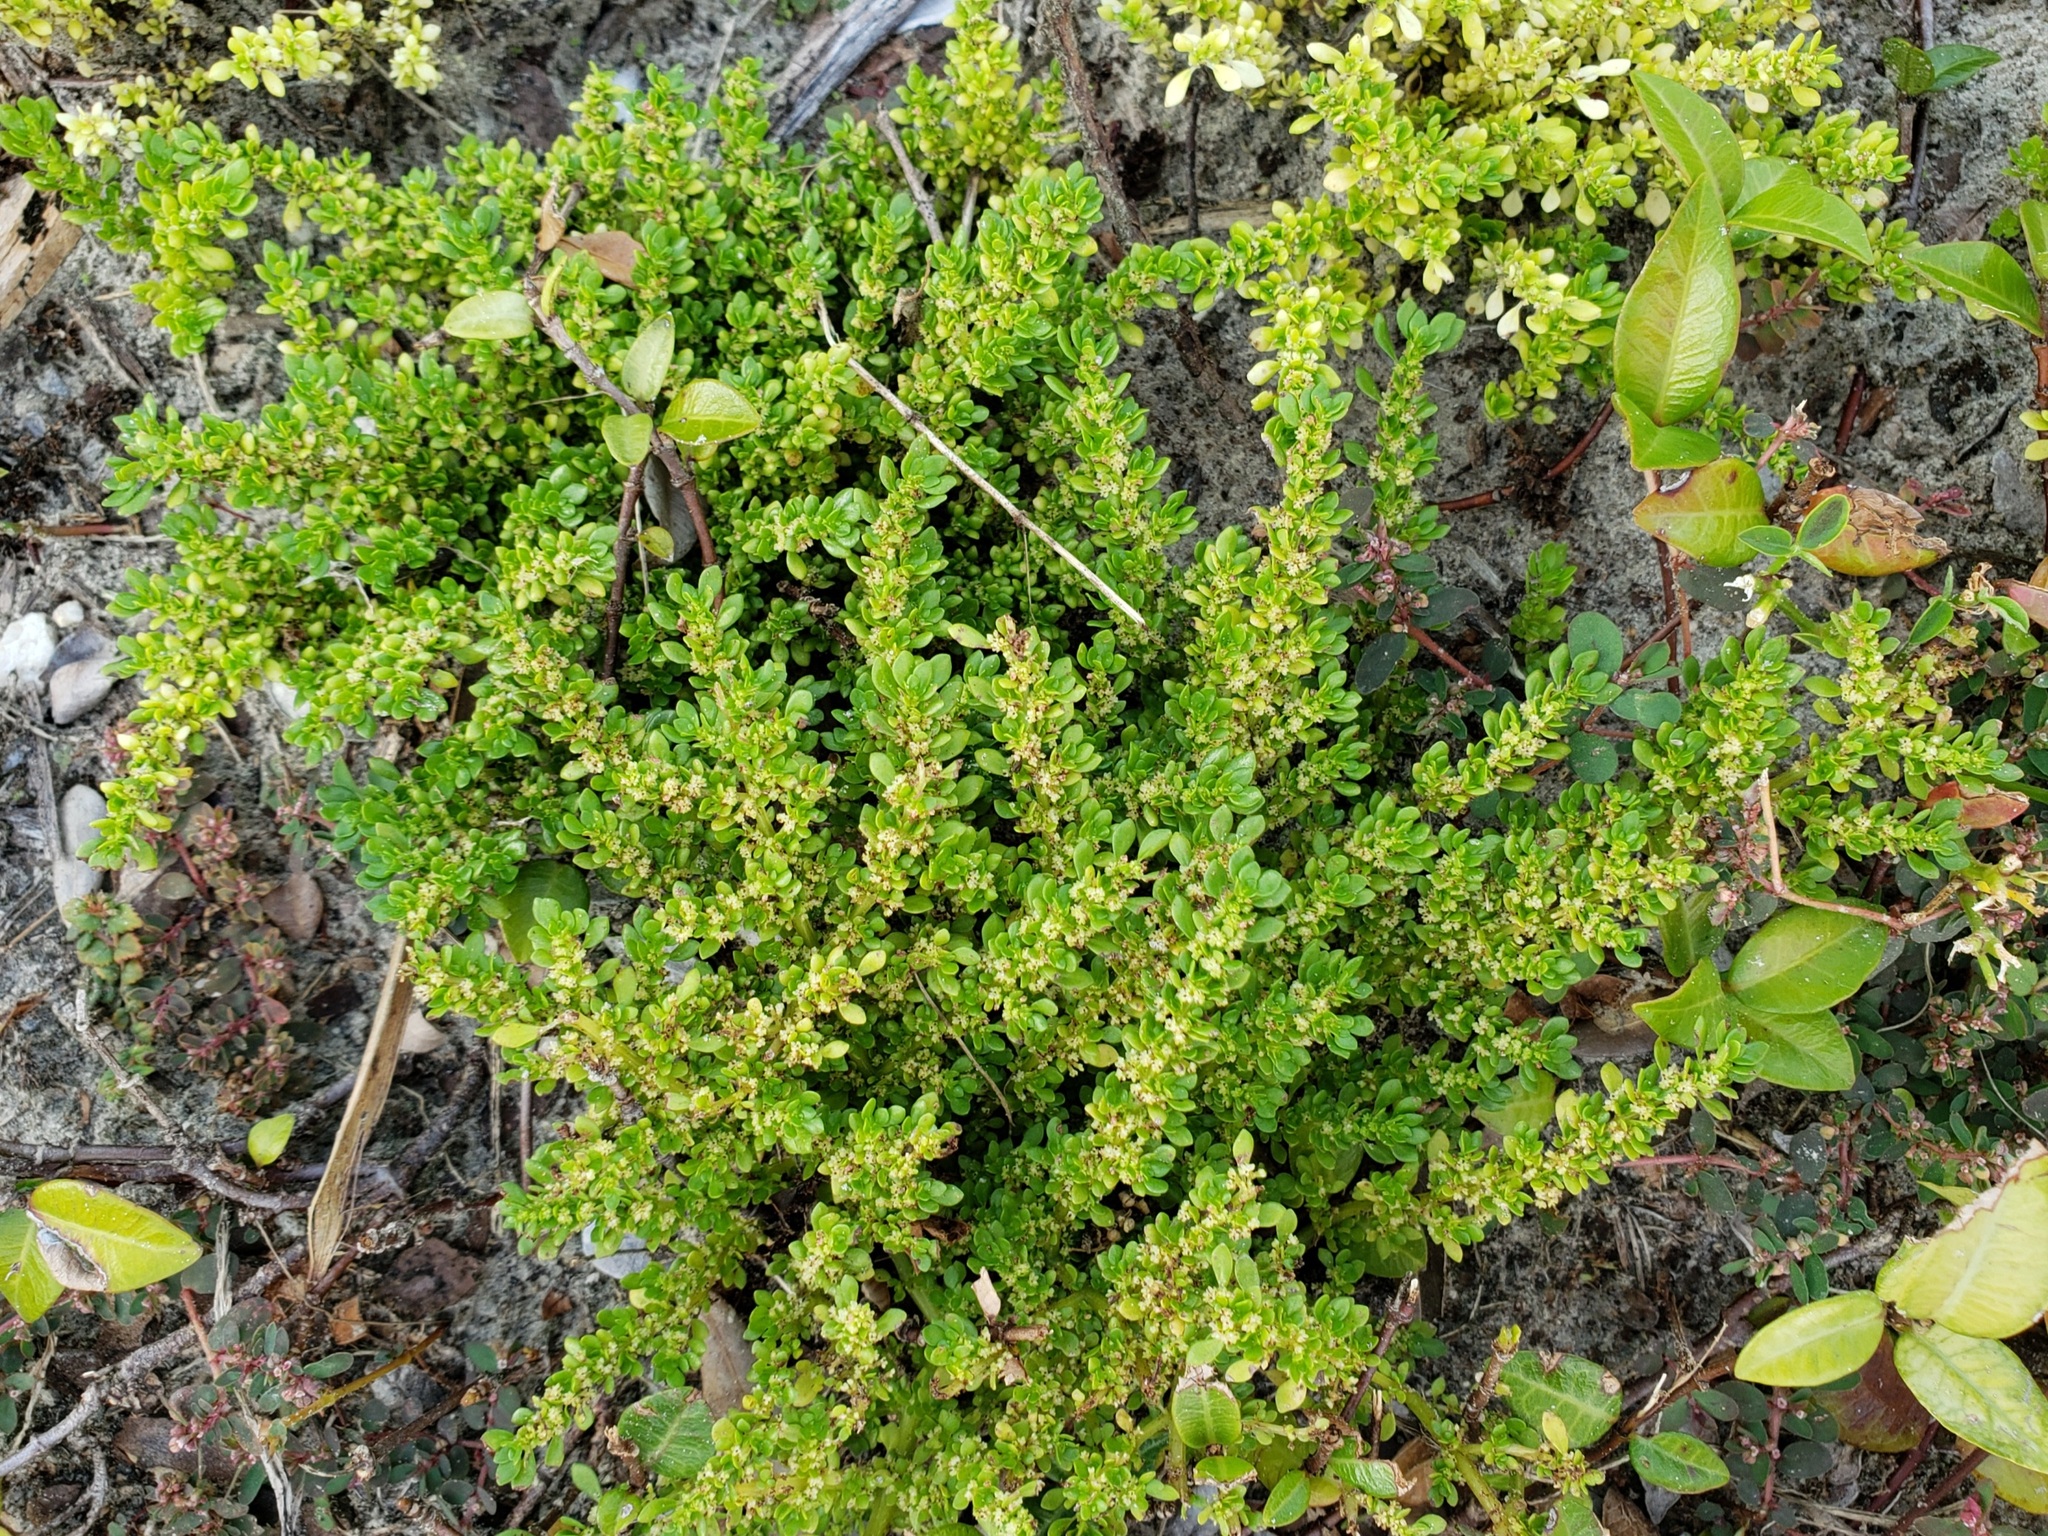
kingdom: Plantae
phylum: Tracheophyta
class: Magnoliopsida
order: Rosales
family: Urticaceae
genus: Pilea
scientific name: Pilea microphylla
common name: Artillery-plant
